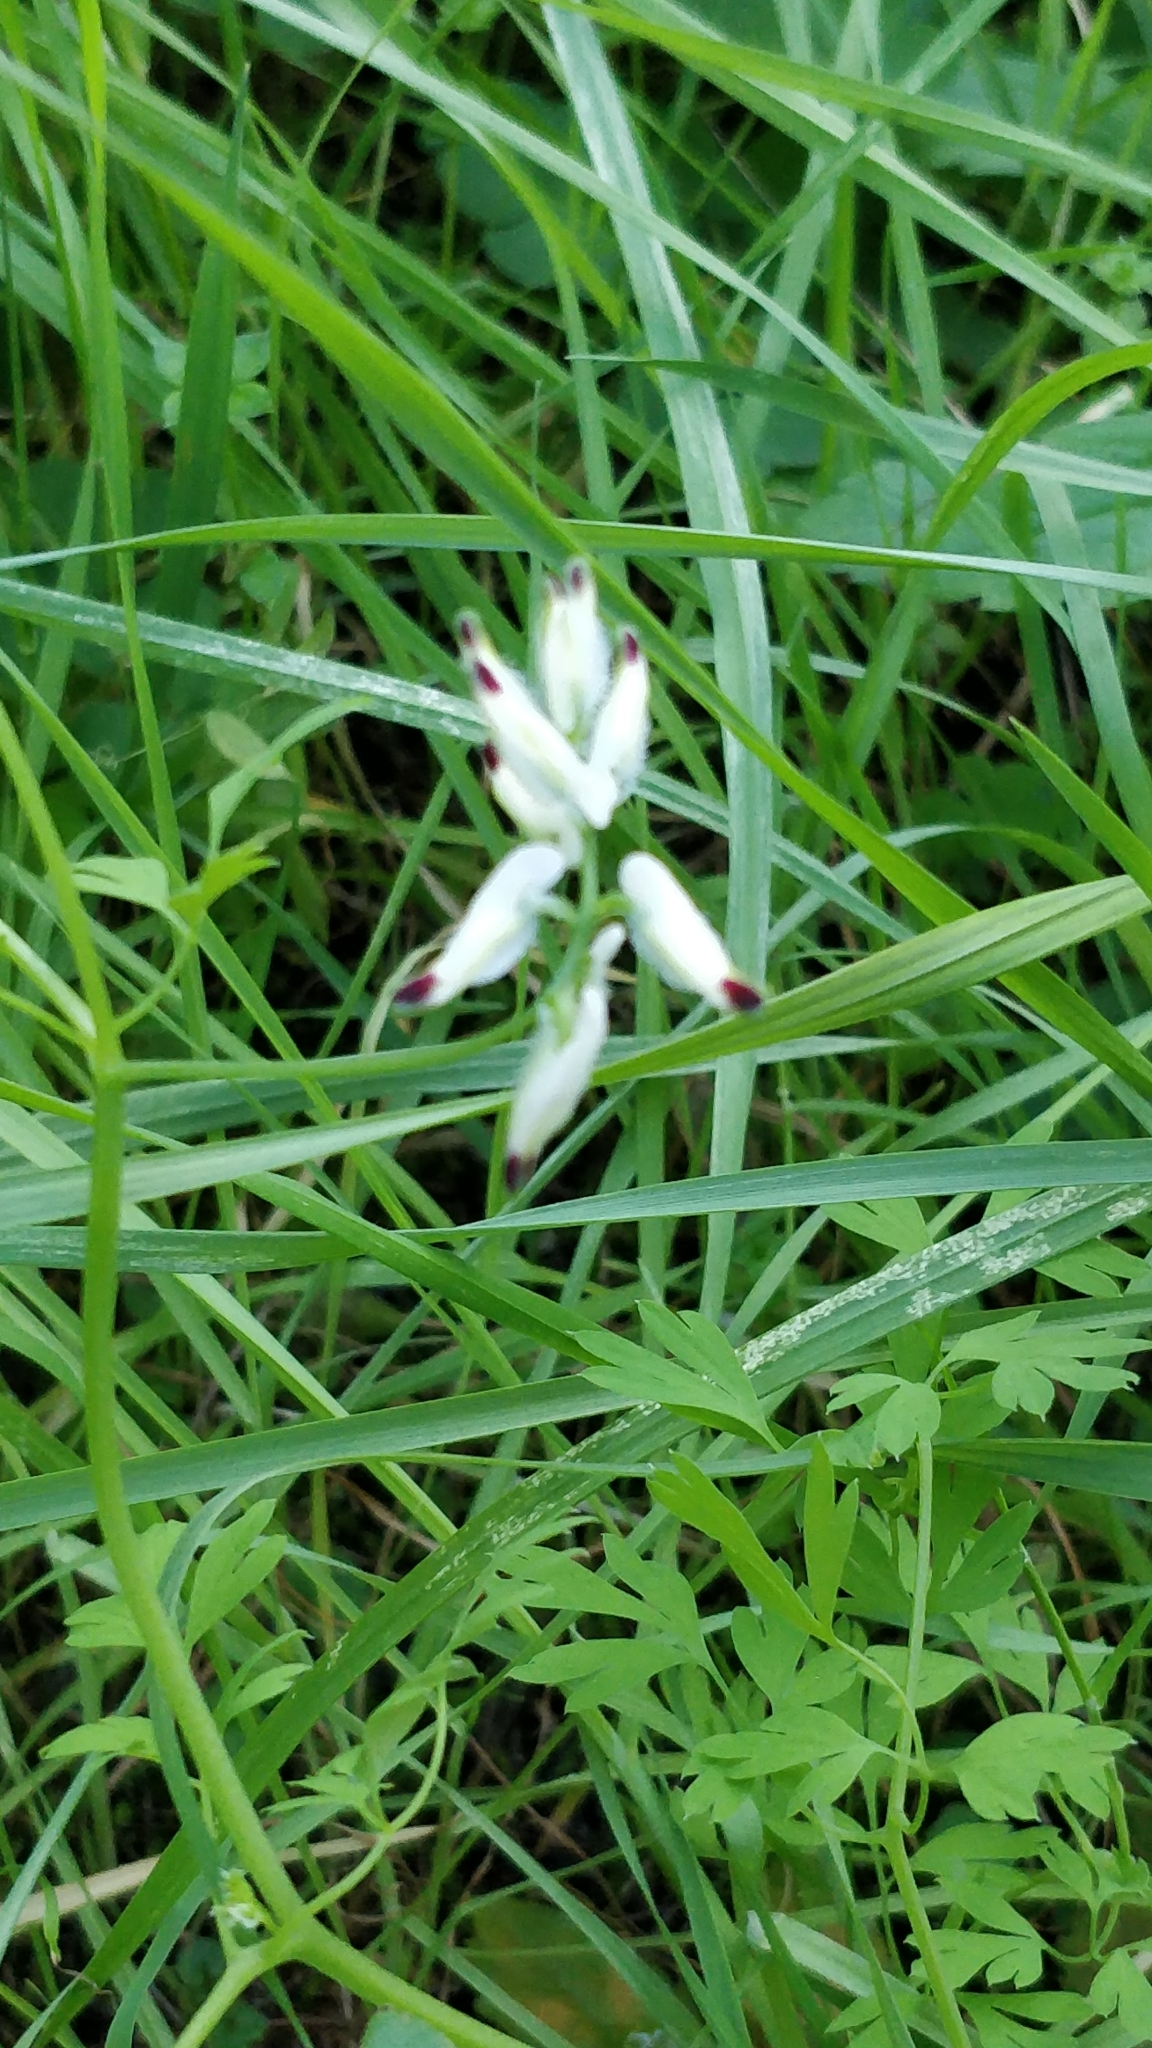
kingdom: Plantae
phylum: Tracheophyta
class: Magnoliopsida
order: Ranunculales
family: Papaveraceae
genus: Fumaria
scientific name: Fumaria capreolata
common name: White ramping-fumitory
